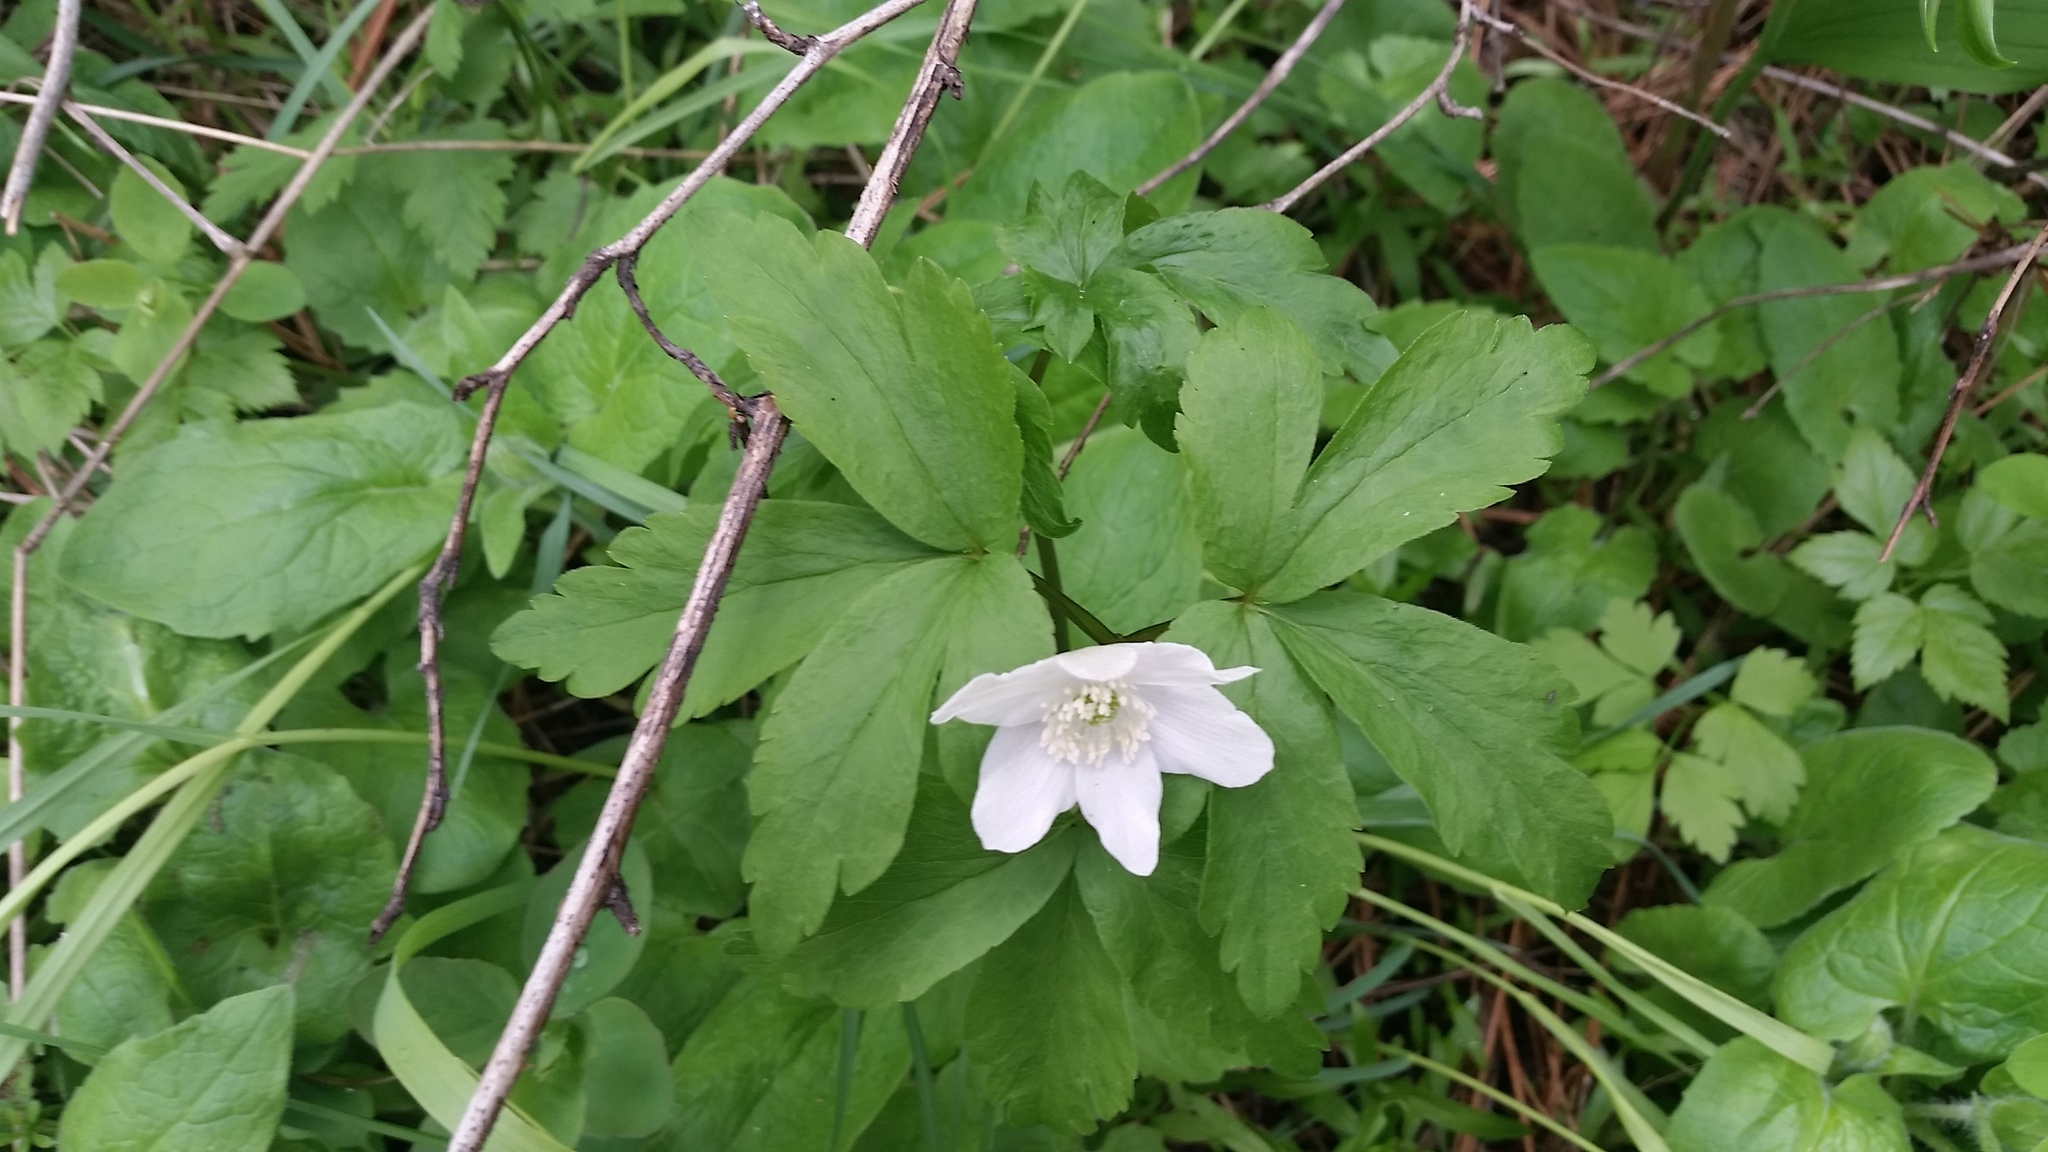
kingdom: Plantae
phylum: Tracheophyta
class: Magnoliopsida
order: Ranunculales
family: Ranunculaceae
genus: Anemone
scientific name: Anemone piperi
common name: Piper's anemone
